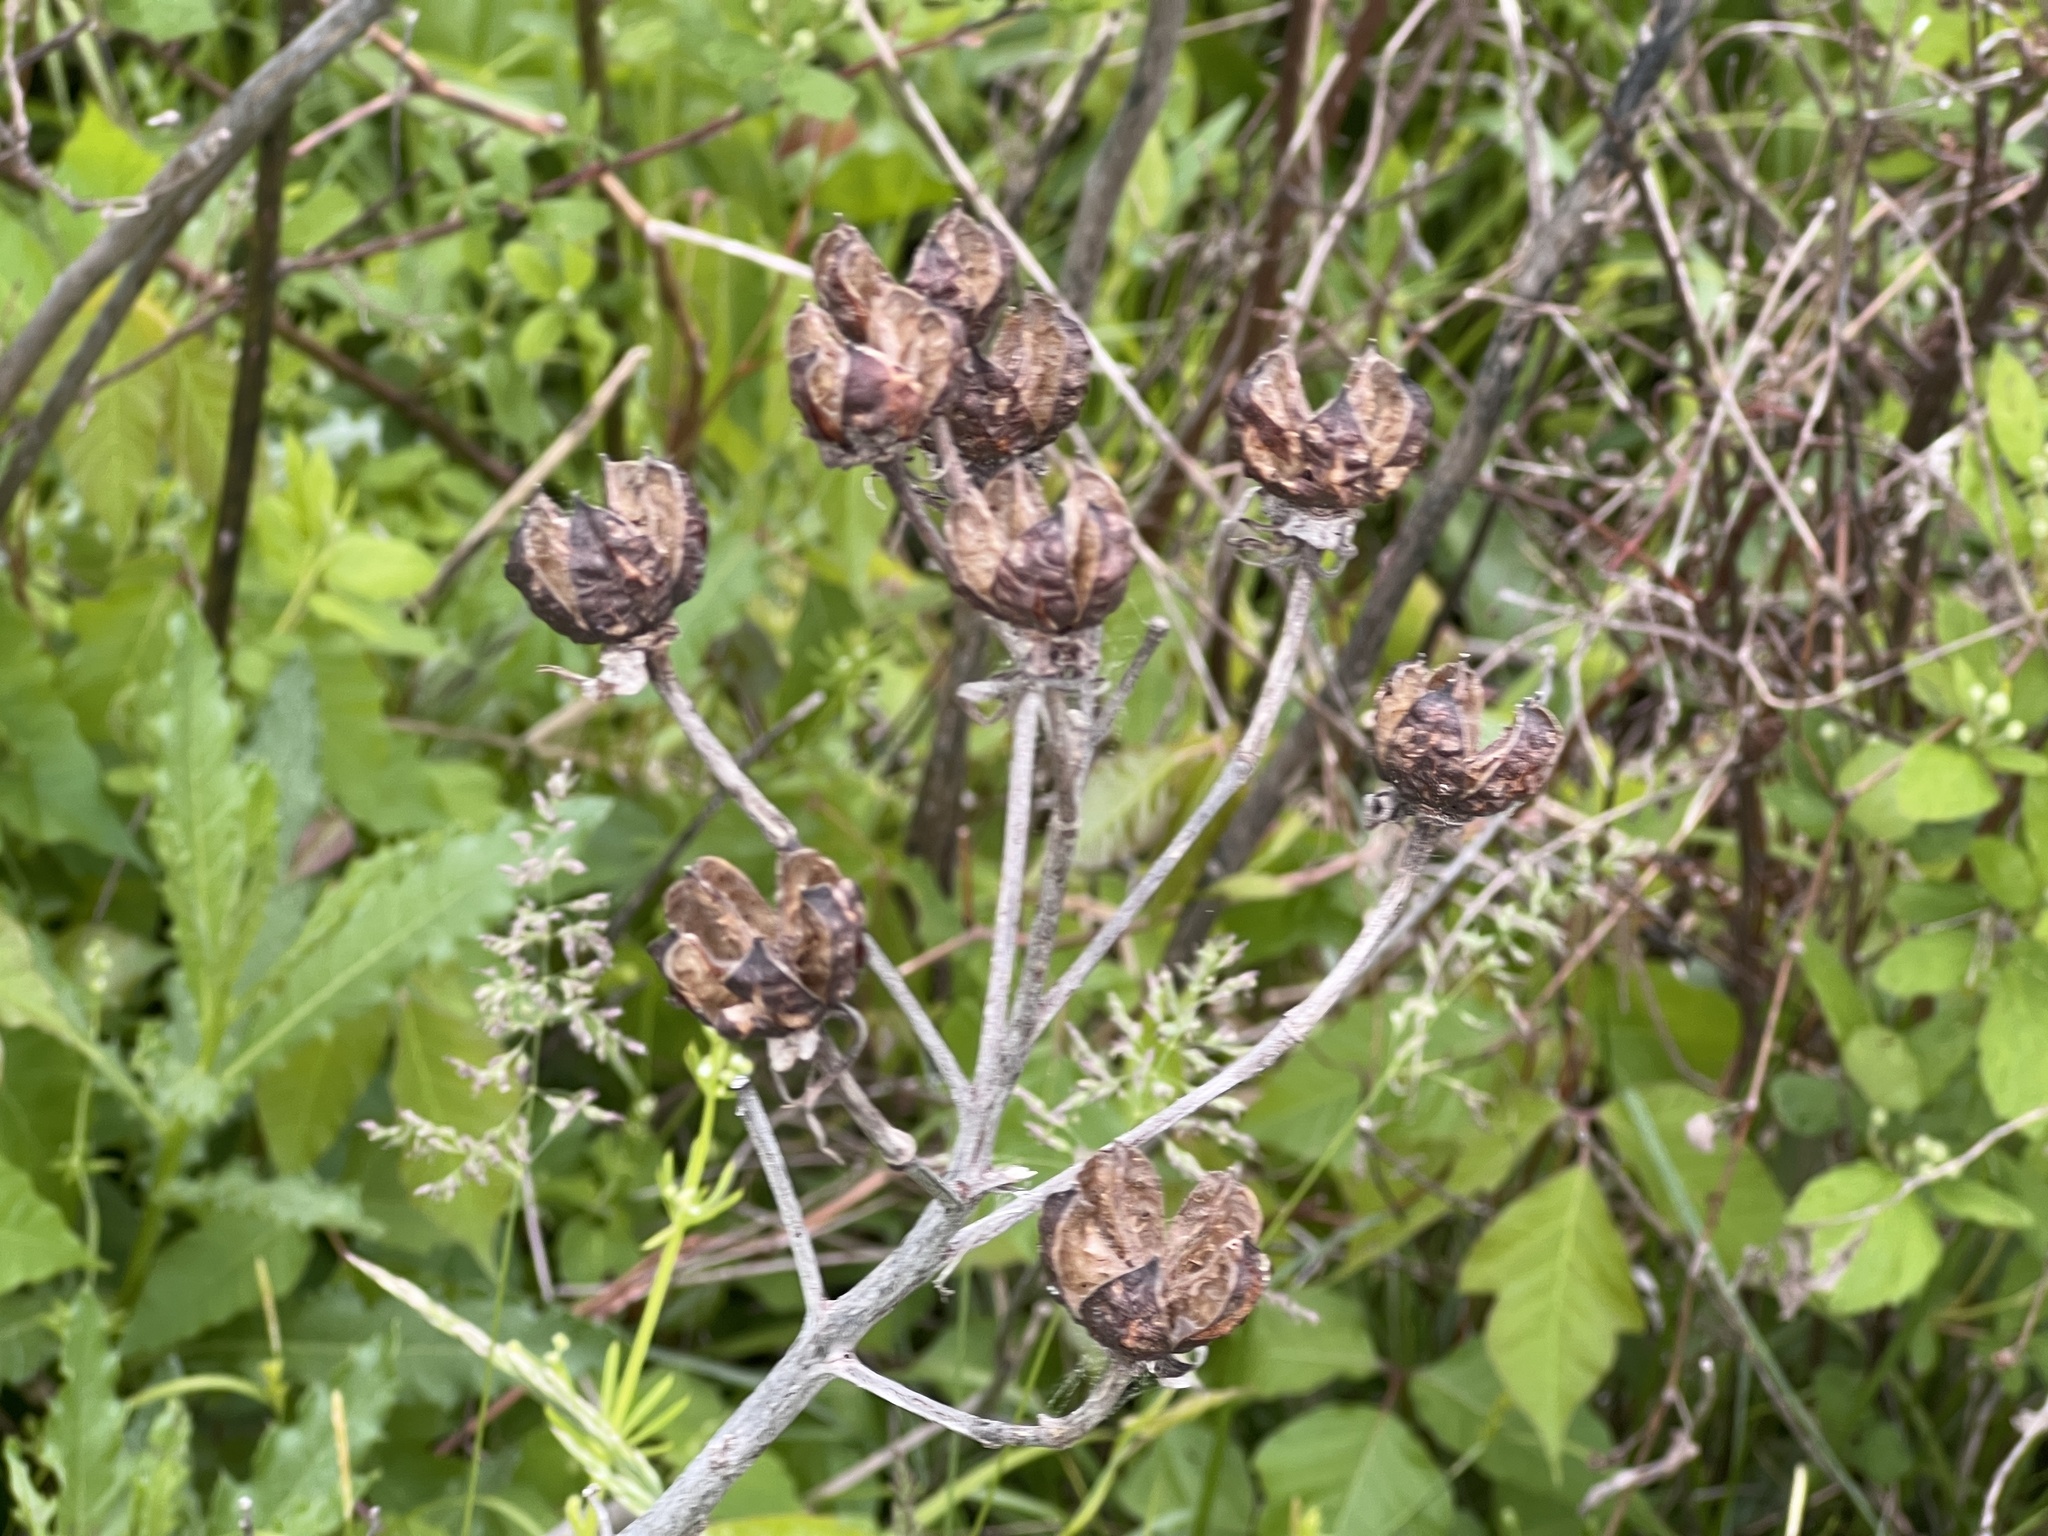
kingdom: Plantae
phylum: Tracheophyta
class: Magnoliopsida
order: Malvales
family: Malvaceae
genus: Hibiscus
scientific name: Hibiscus moscheutos
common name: Common rose-mallow
